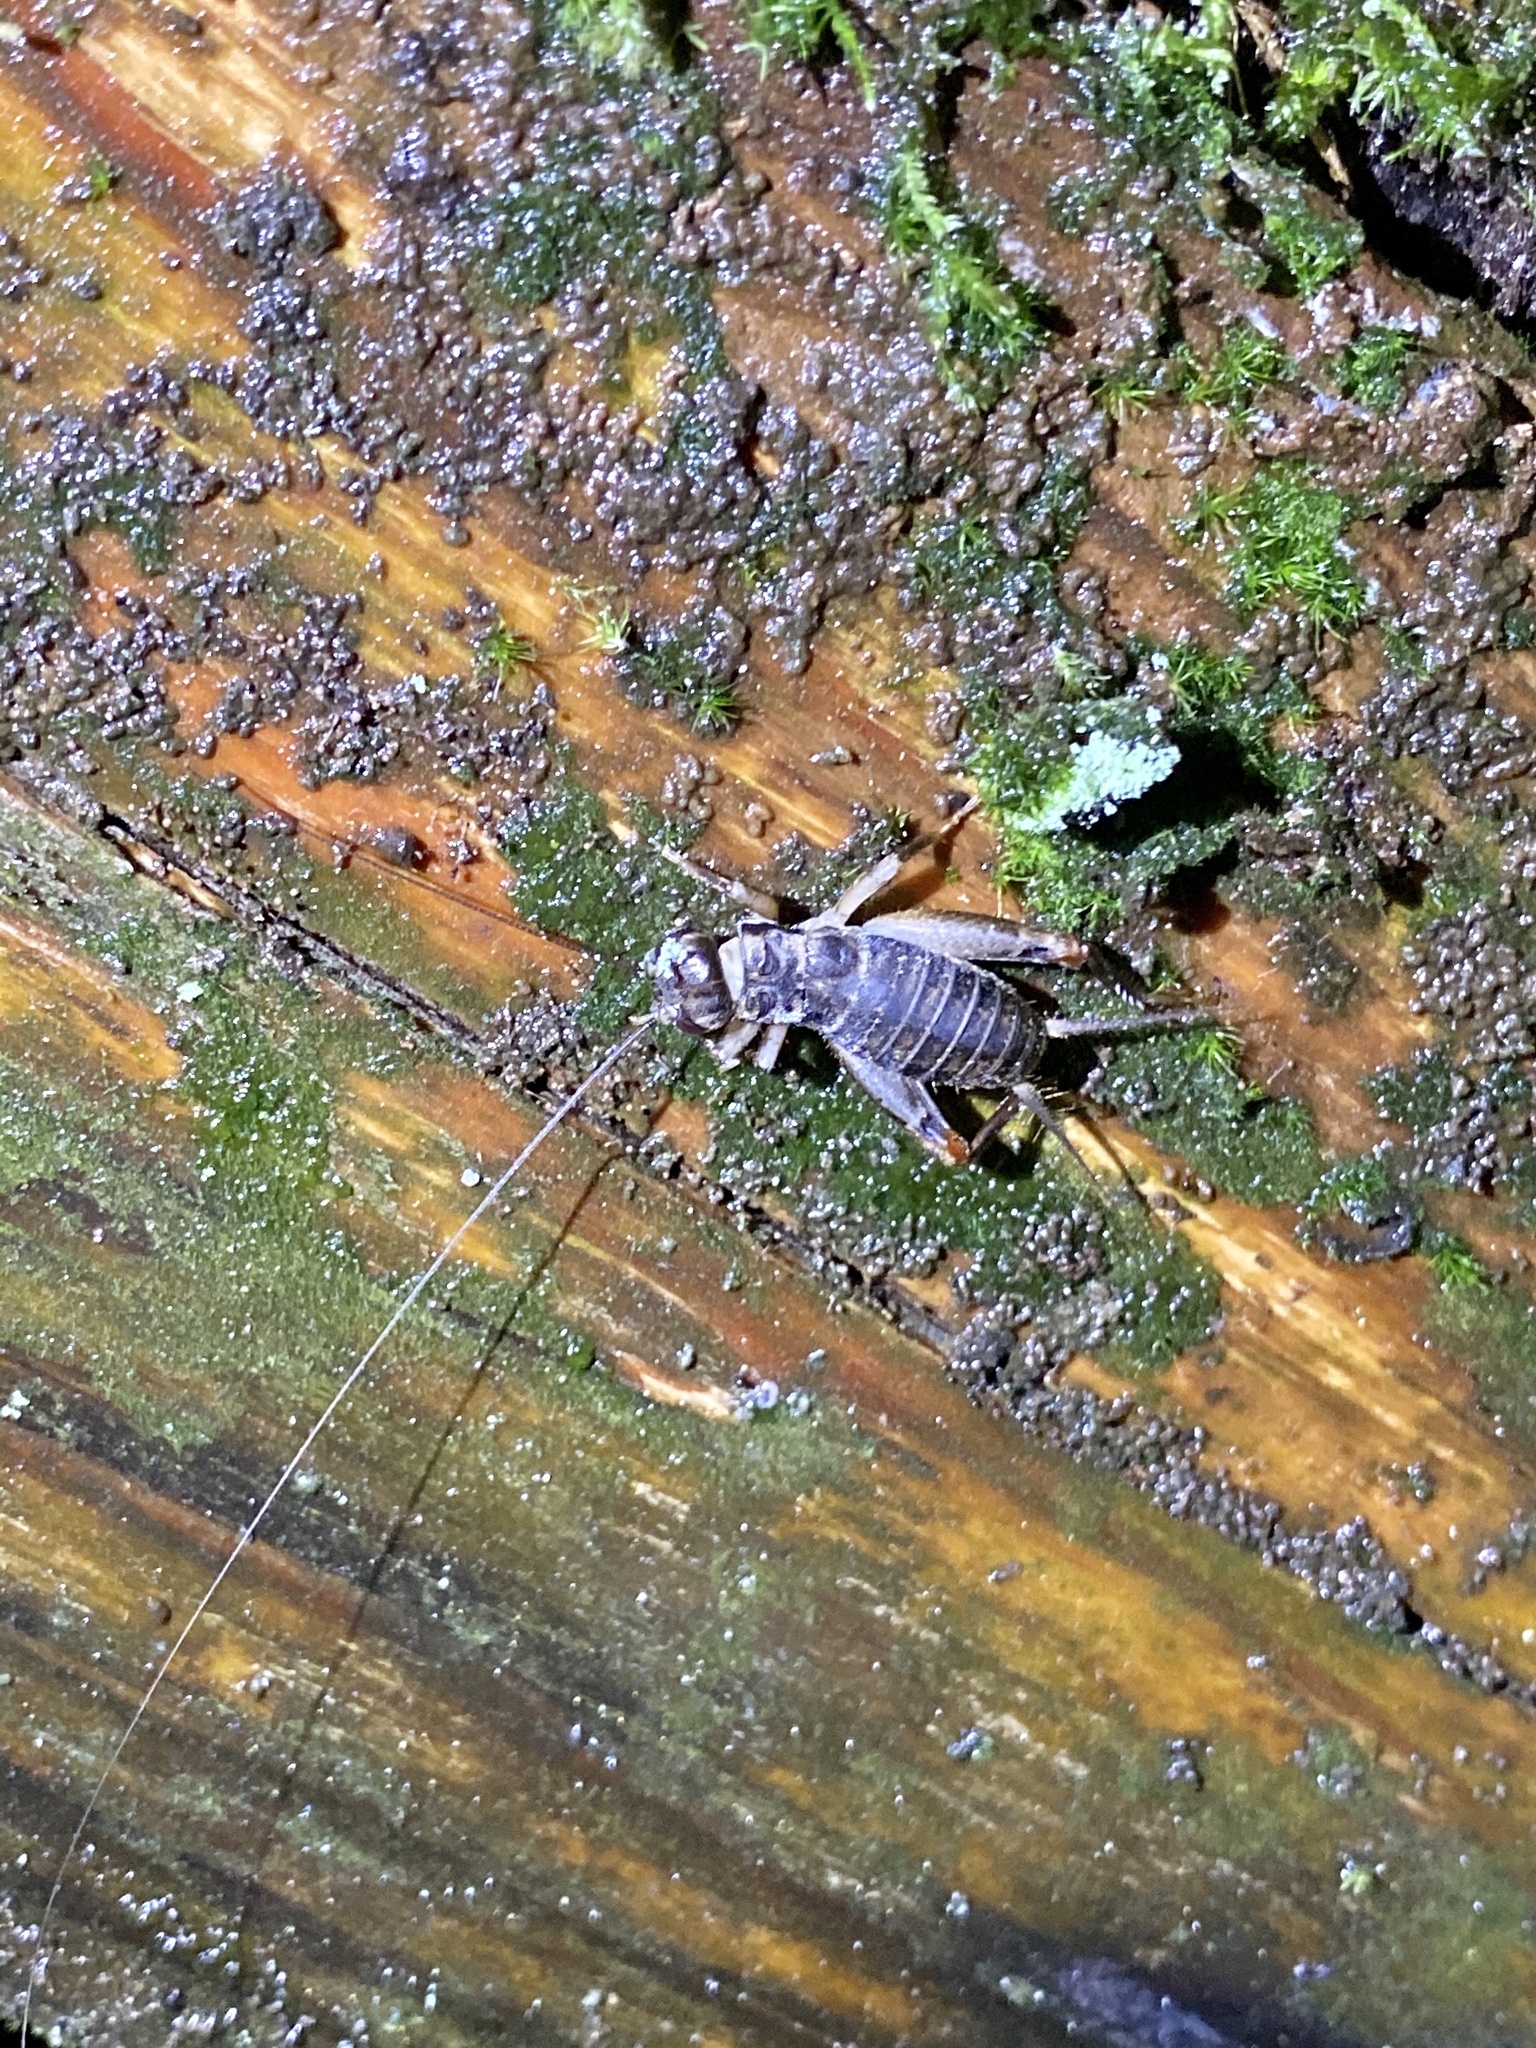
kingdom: Animalia
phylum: Arthropoda
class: Insecta
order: Orthoptera
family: Gryllidae
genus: Duolandrevus
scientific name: Duolandrevus ivani
